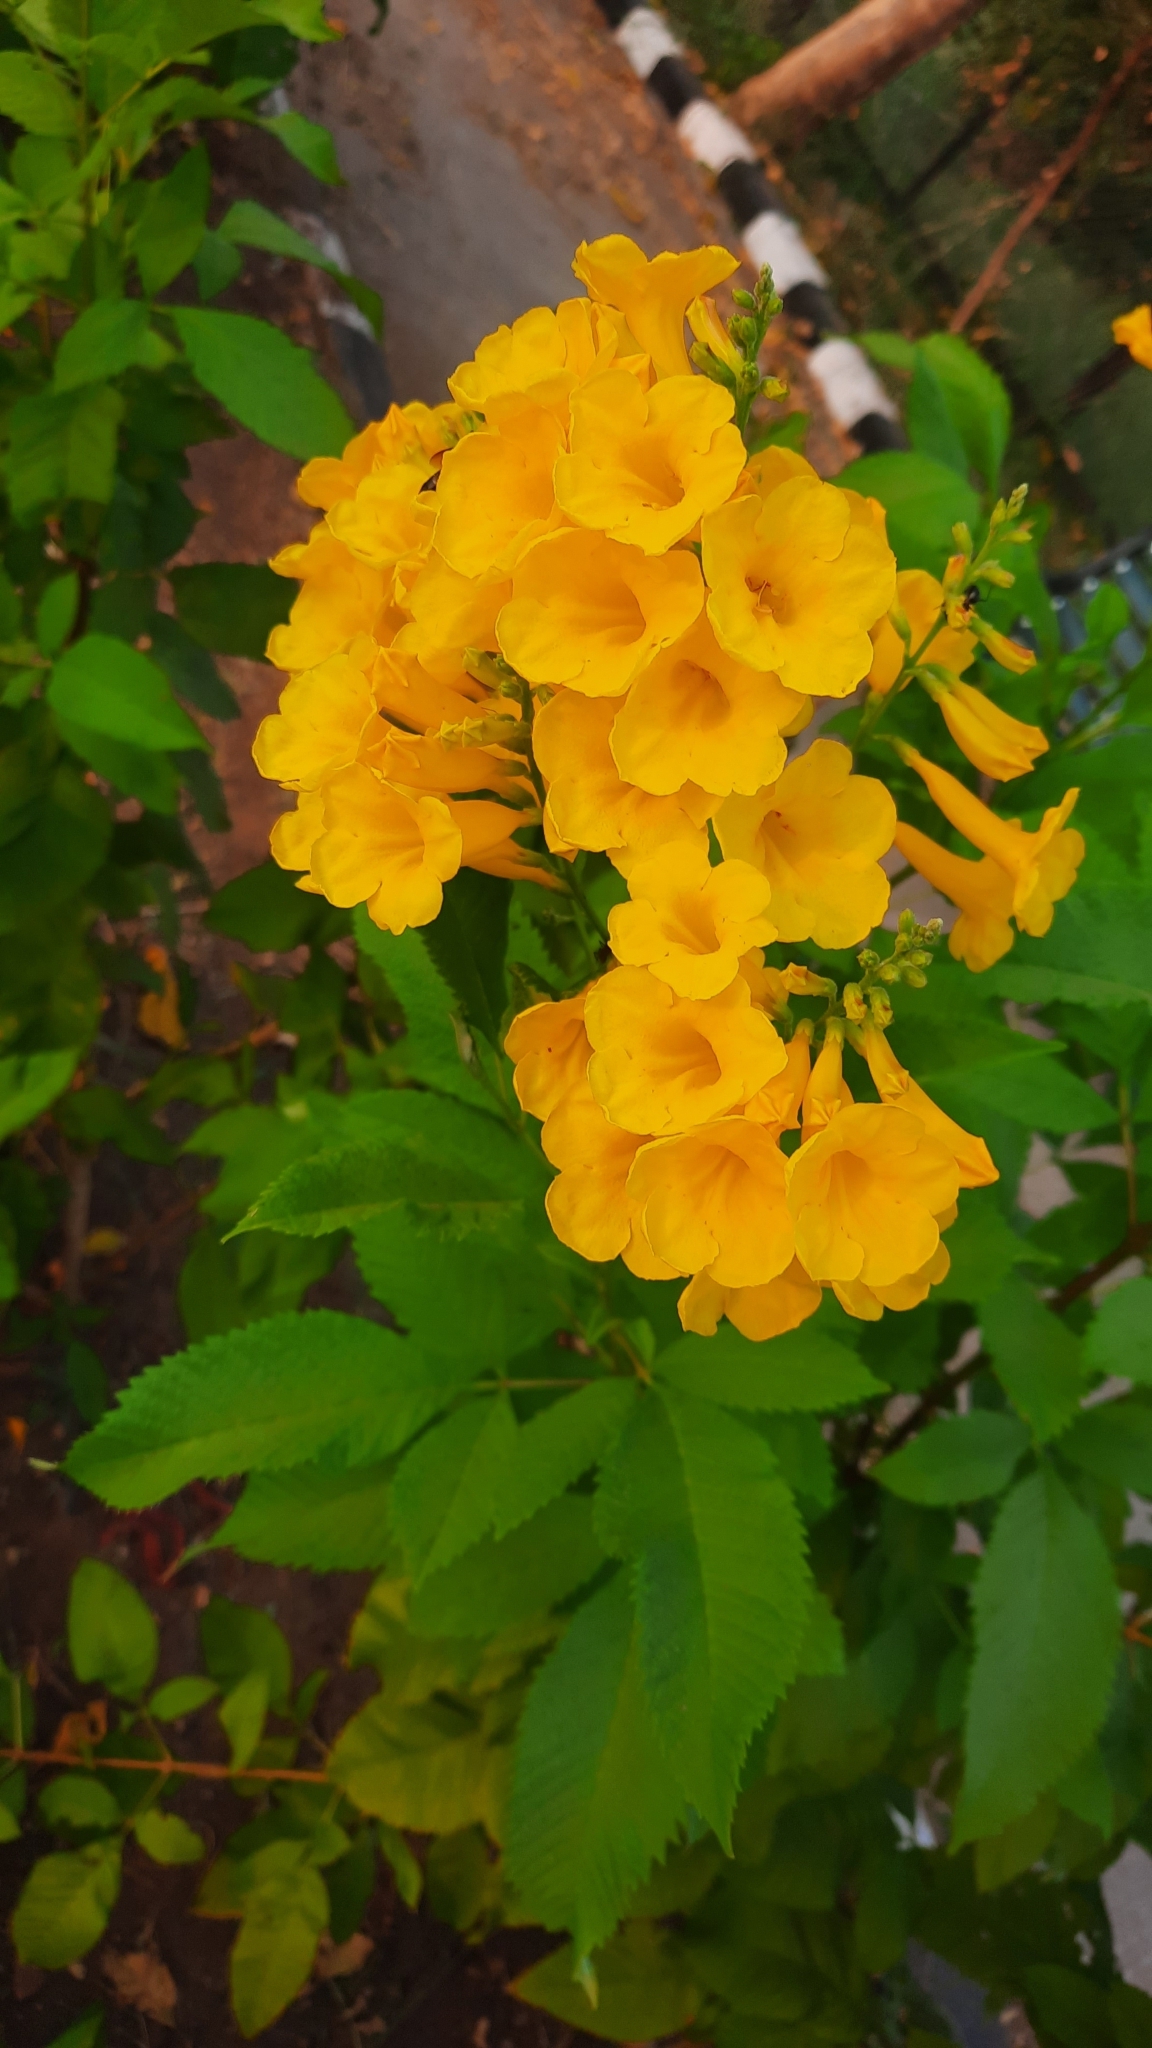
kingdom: Plantae
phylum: Tracheophyta
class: Magnoliopsida
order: Lamiales
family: Bignoniaceae
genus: Tecoma
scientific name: Tecoma stans
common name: Yellow trumpetbush
